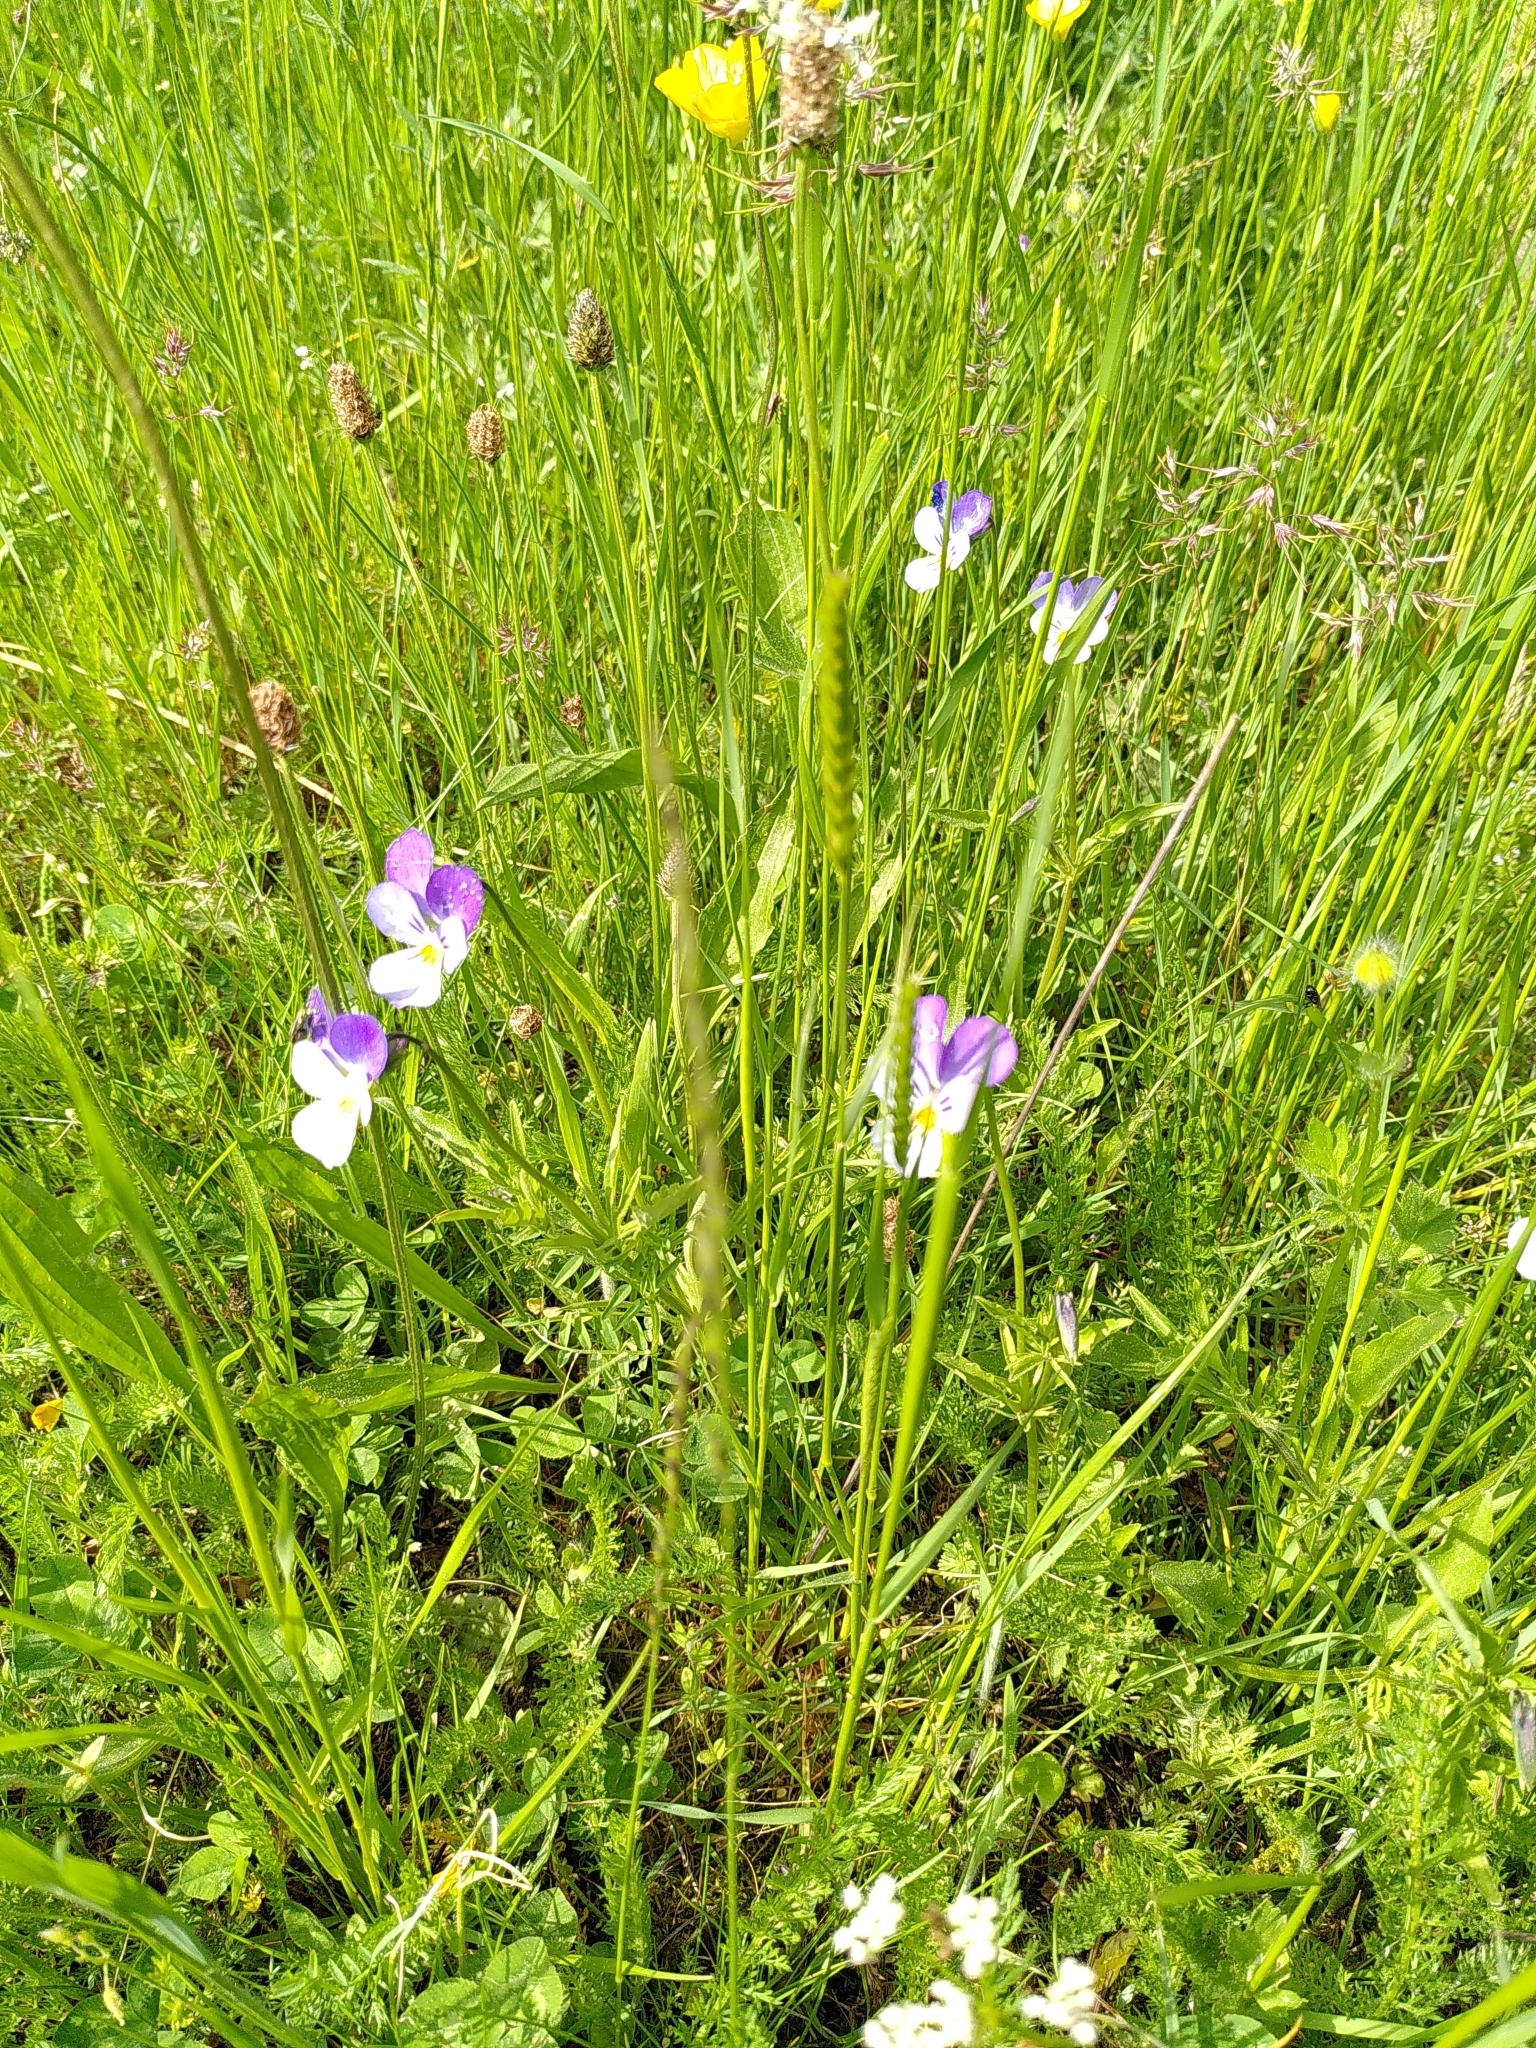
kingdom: Plantae
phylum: Tracheophyta
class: Magnoliopsida
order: Malpighiales
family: Violaceae
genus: Viola
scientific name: Viola lutea
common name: Mountain pansy
